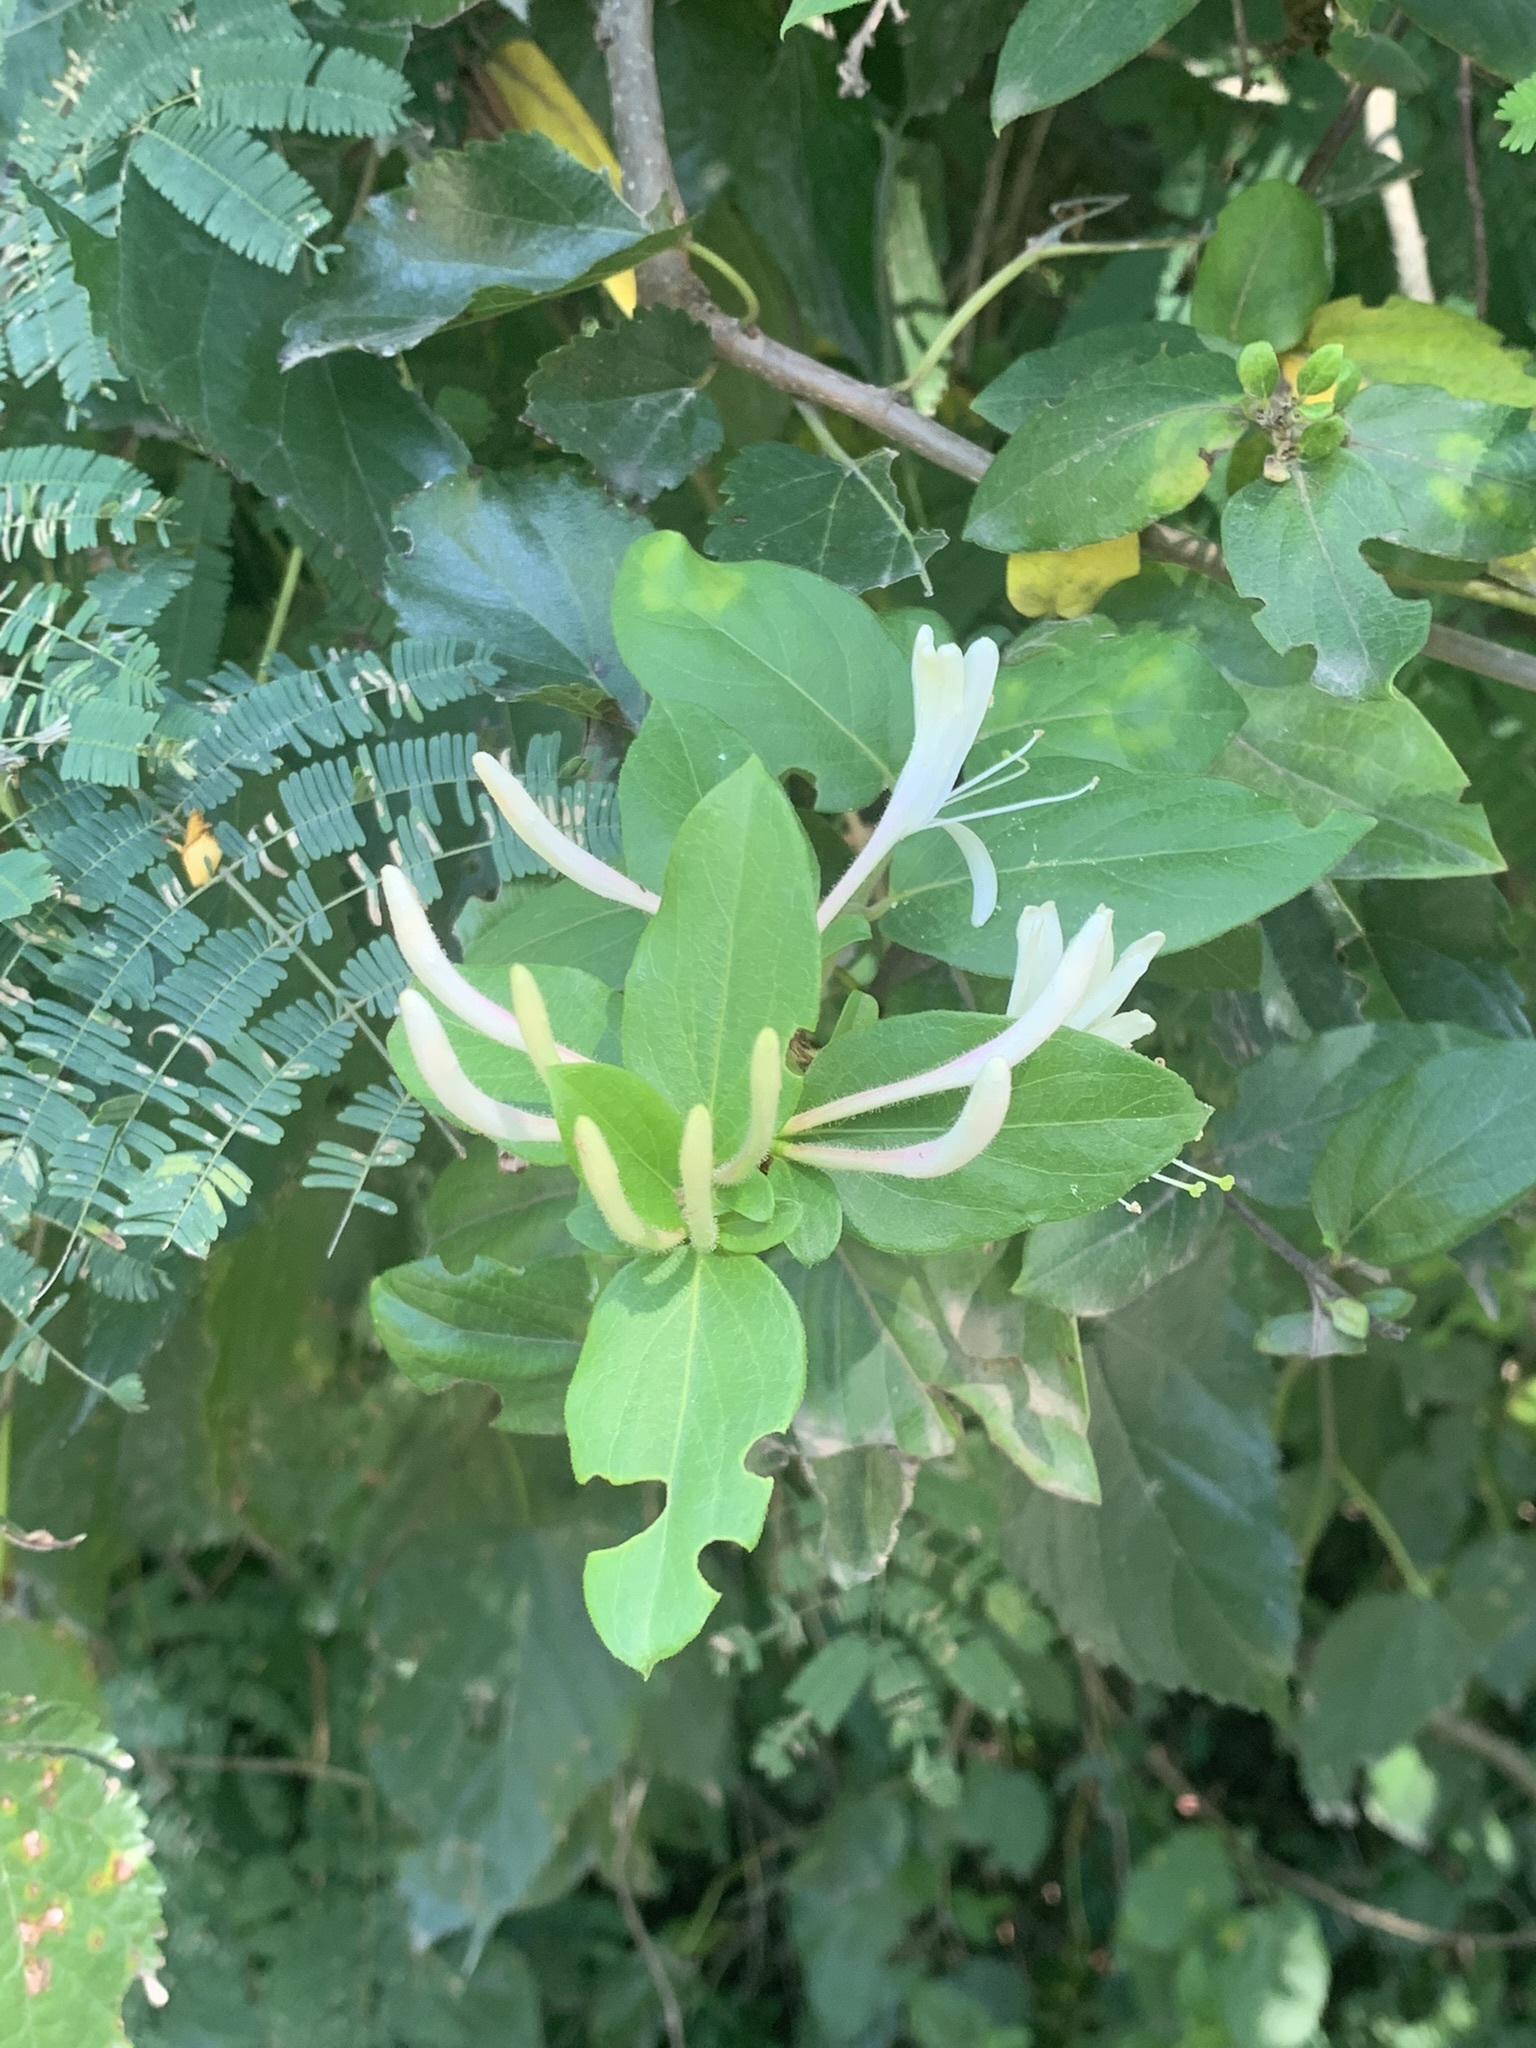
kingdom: Plantae
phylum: Tracheophyta
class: Magnoliopsida
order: Dipsacales
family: Caprifoliaceae
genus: Lonicera
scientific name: Lonicera japonica
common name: Japanese honeysuckle
